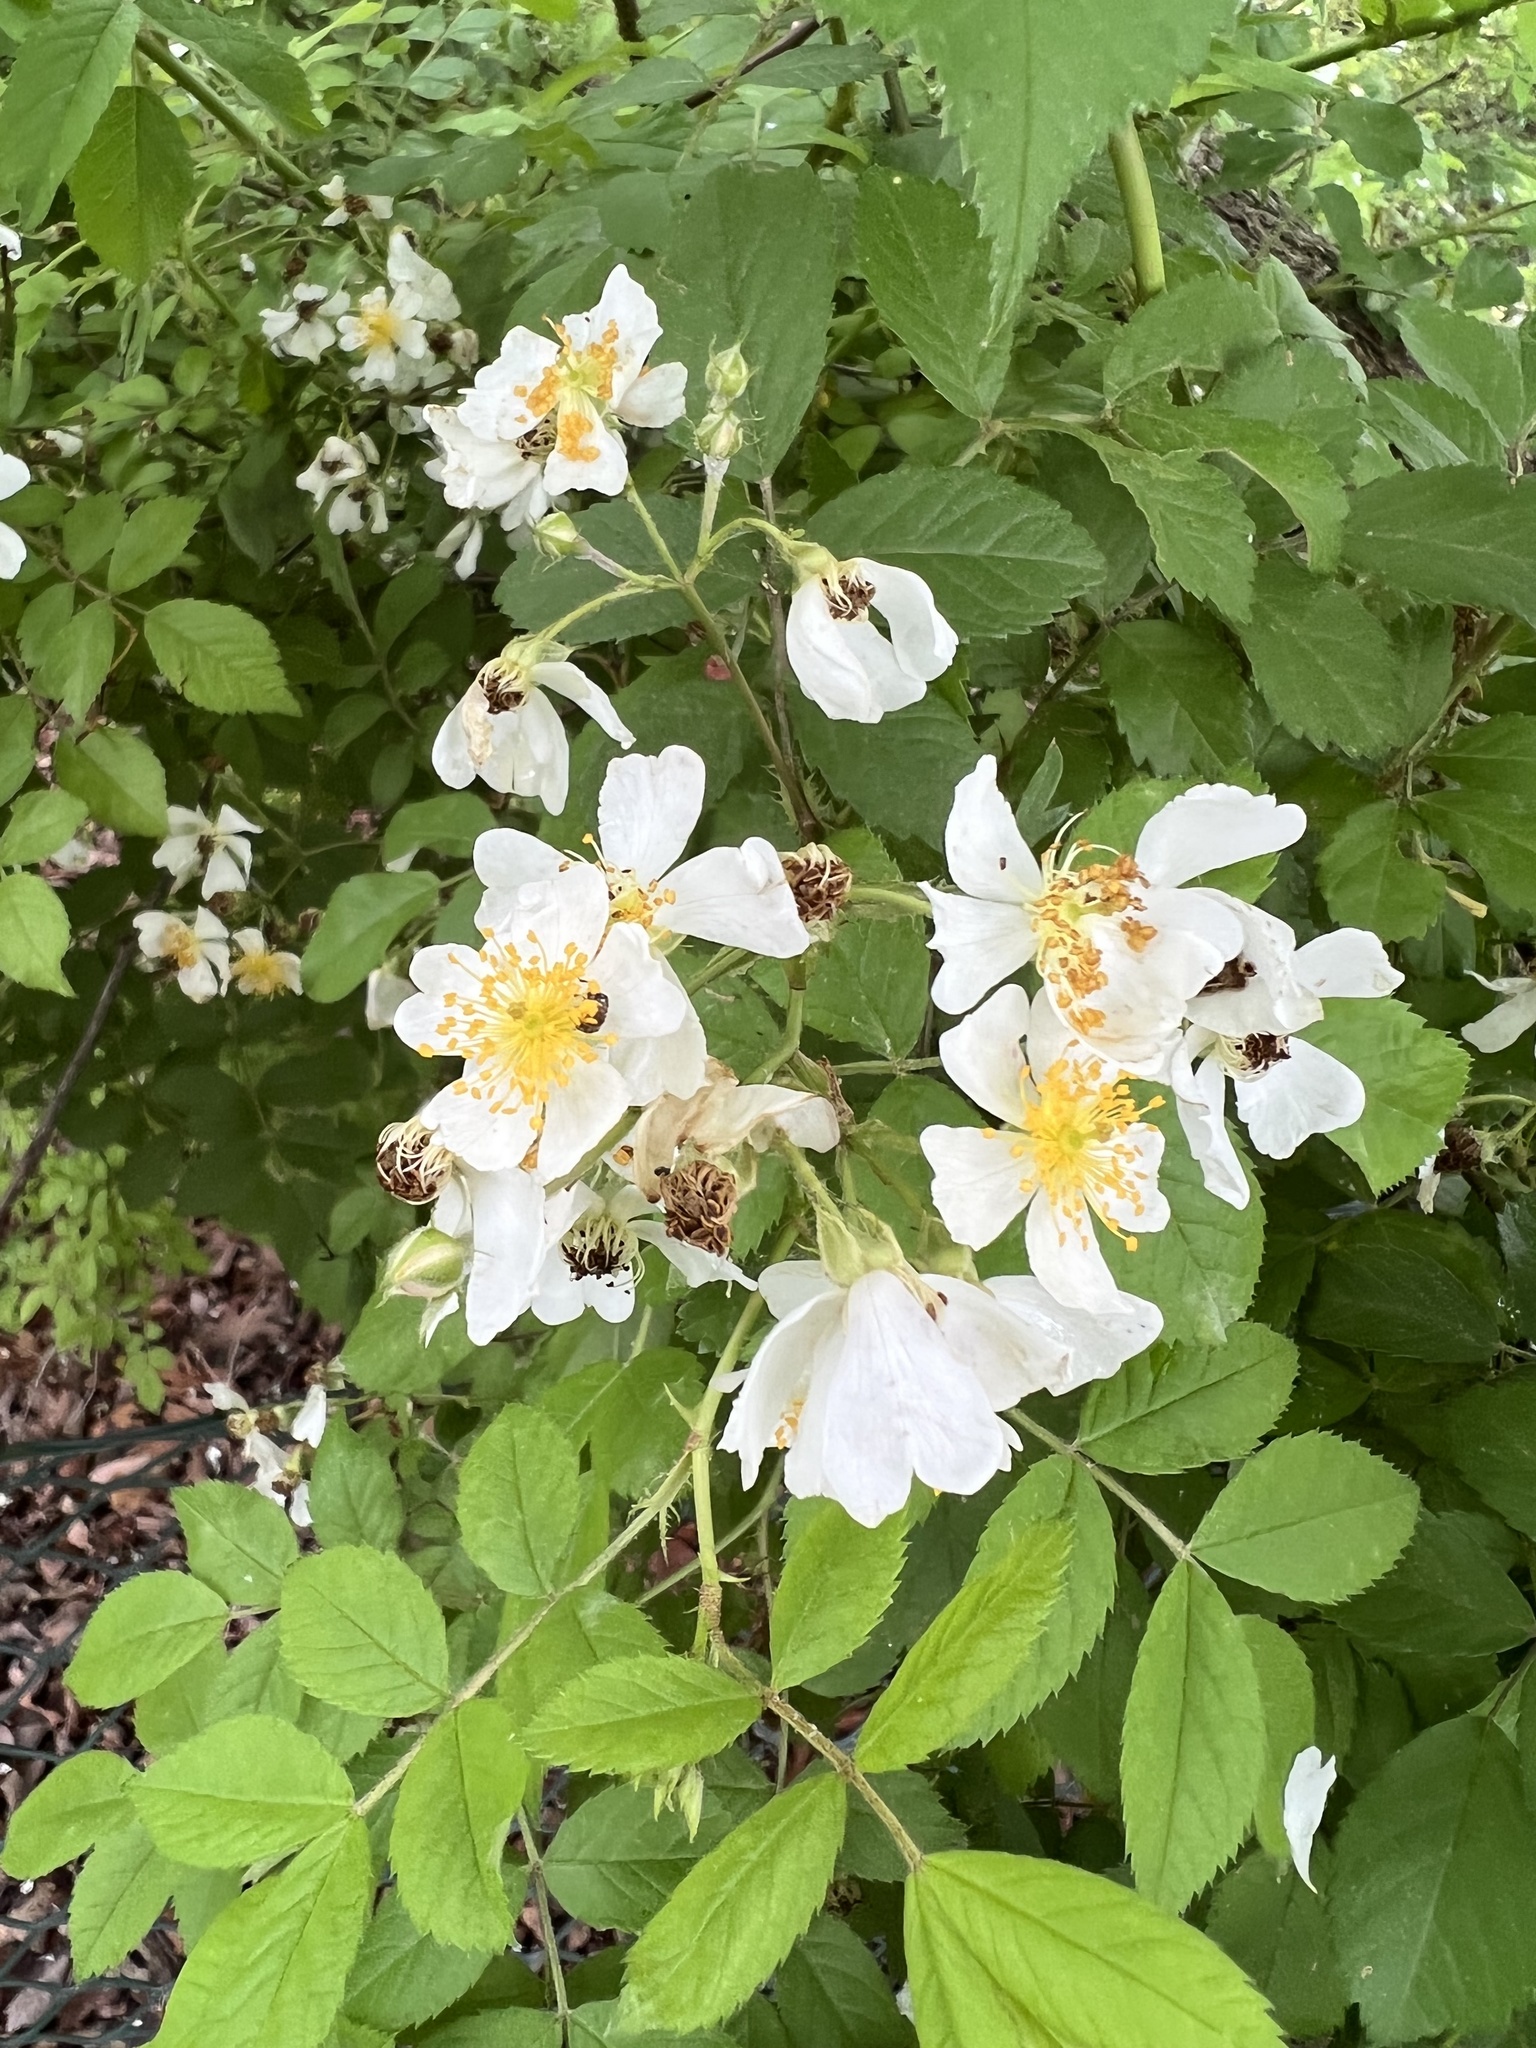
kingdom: Plantae
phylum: Tracheophyta
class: Magnoliopsida
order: Rosales
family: Rosaceae
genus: Rosa
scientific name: Rosa multiflora
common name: Multiflora rose
